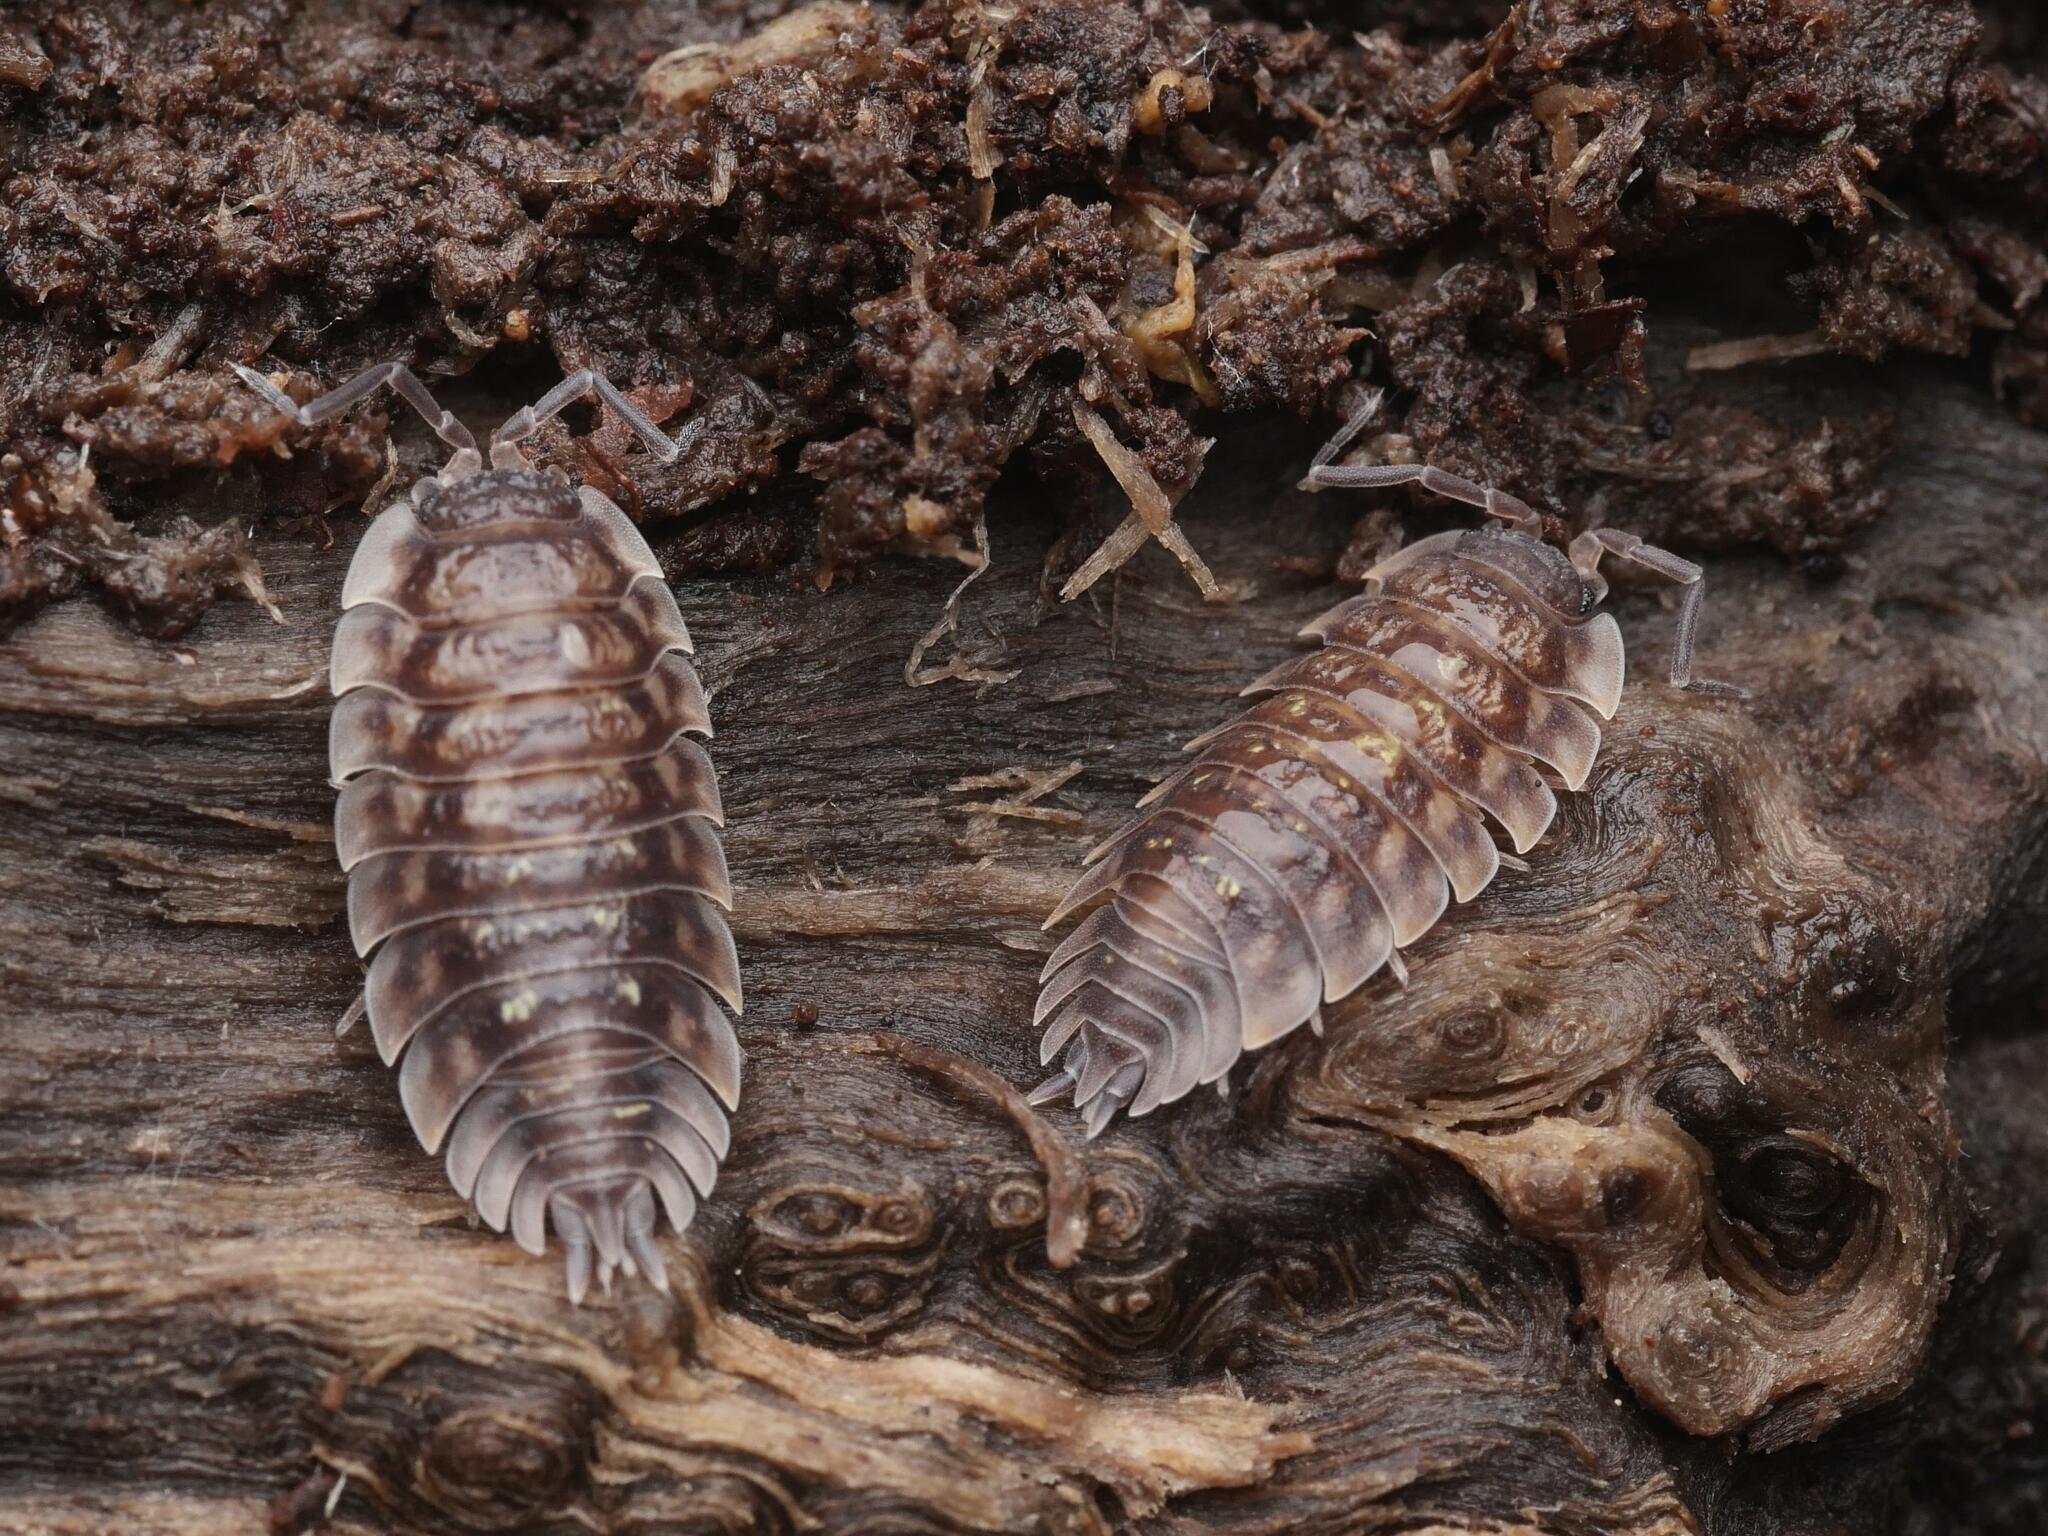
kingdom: Animalia
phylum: Arthropoda
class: Malacostraca
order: Isopoda
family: Oniscidae
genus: Oniscus
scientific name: Oniscus asellus
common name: Common shiny woodlouse
